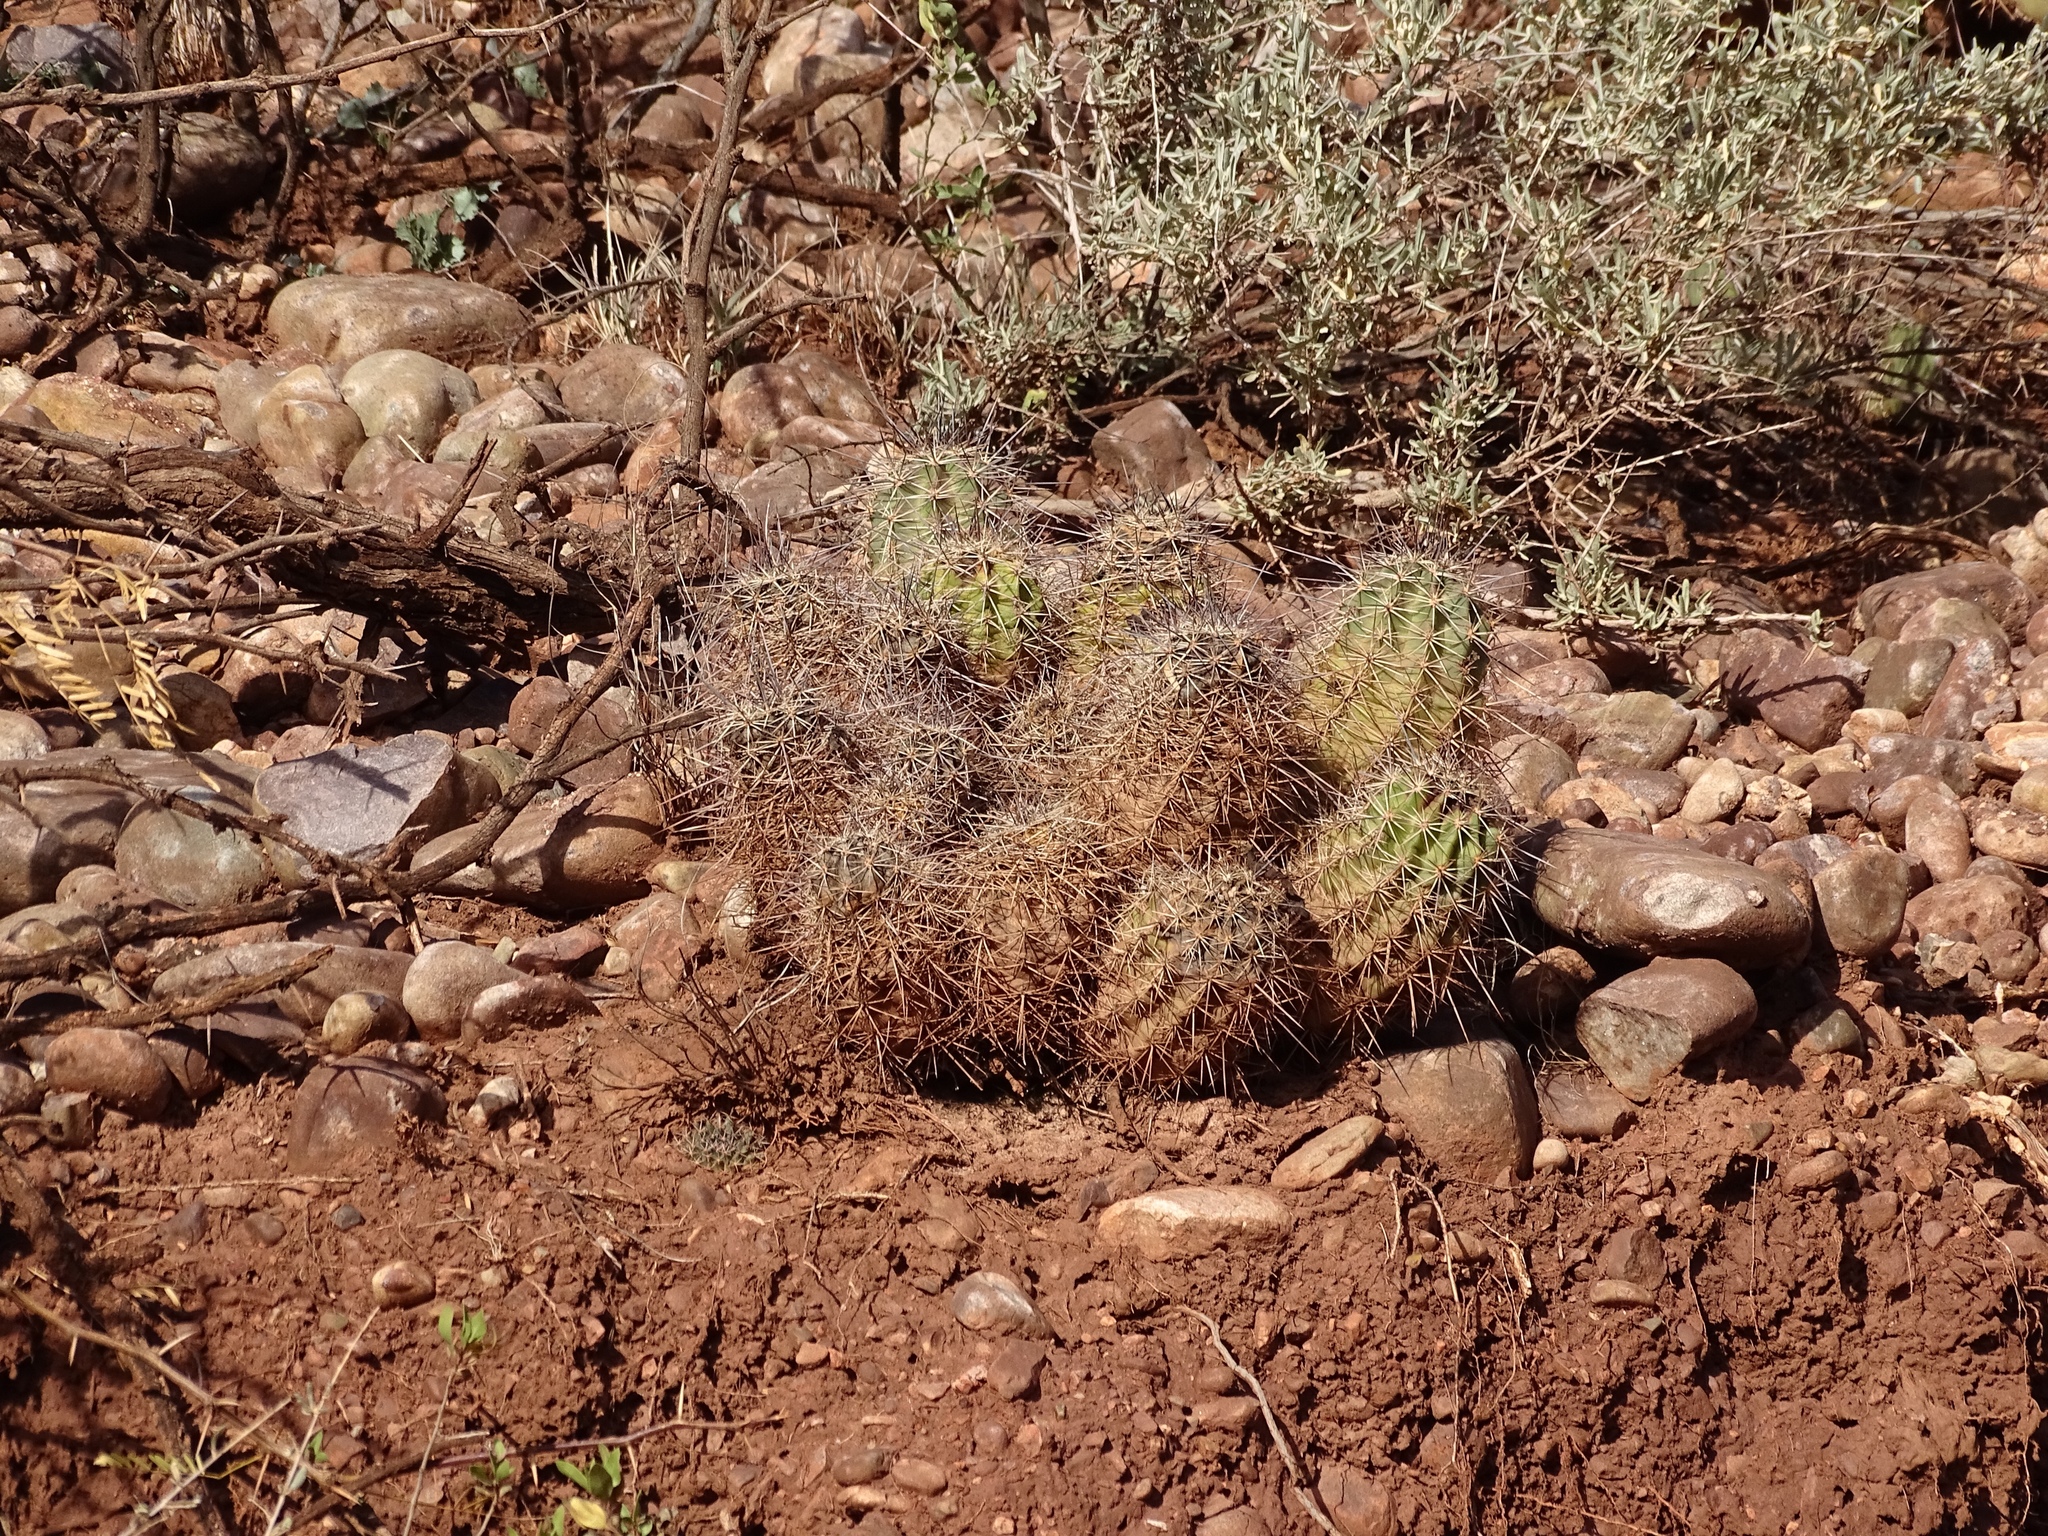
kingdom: Plantae
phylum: Tracheophyta
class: Magnoliopsida
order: Caryophyllales
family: Cactaceae
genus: Echinocereus
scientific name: Echinocereus coccineus
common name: Scarlet hedgehog cactus
